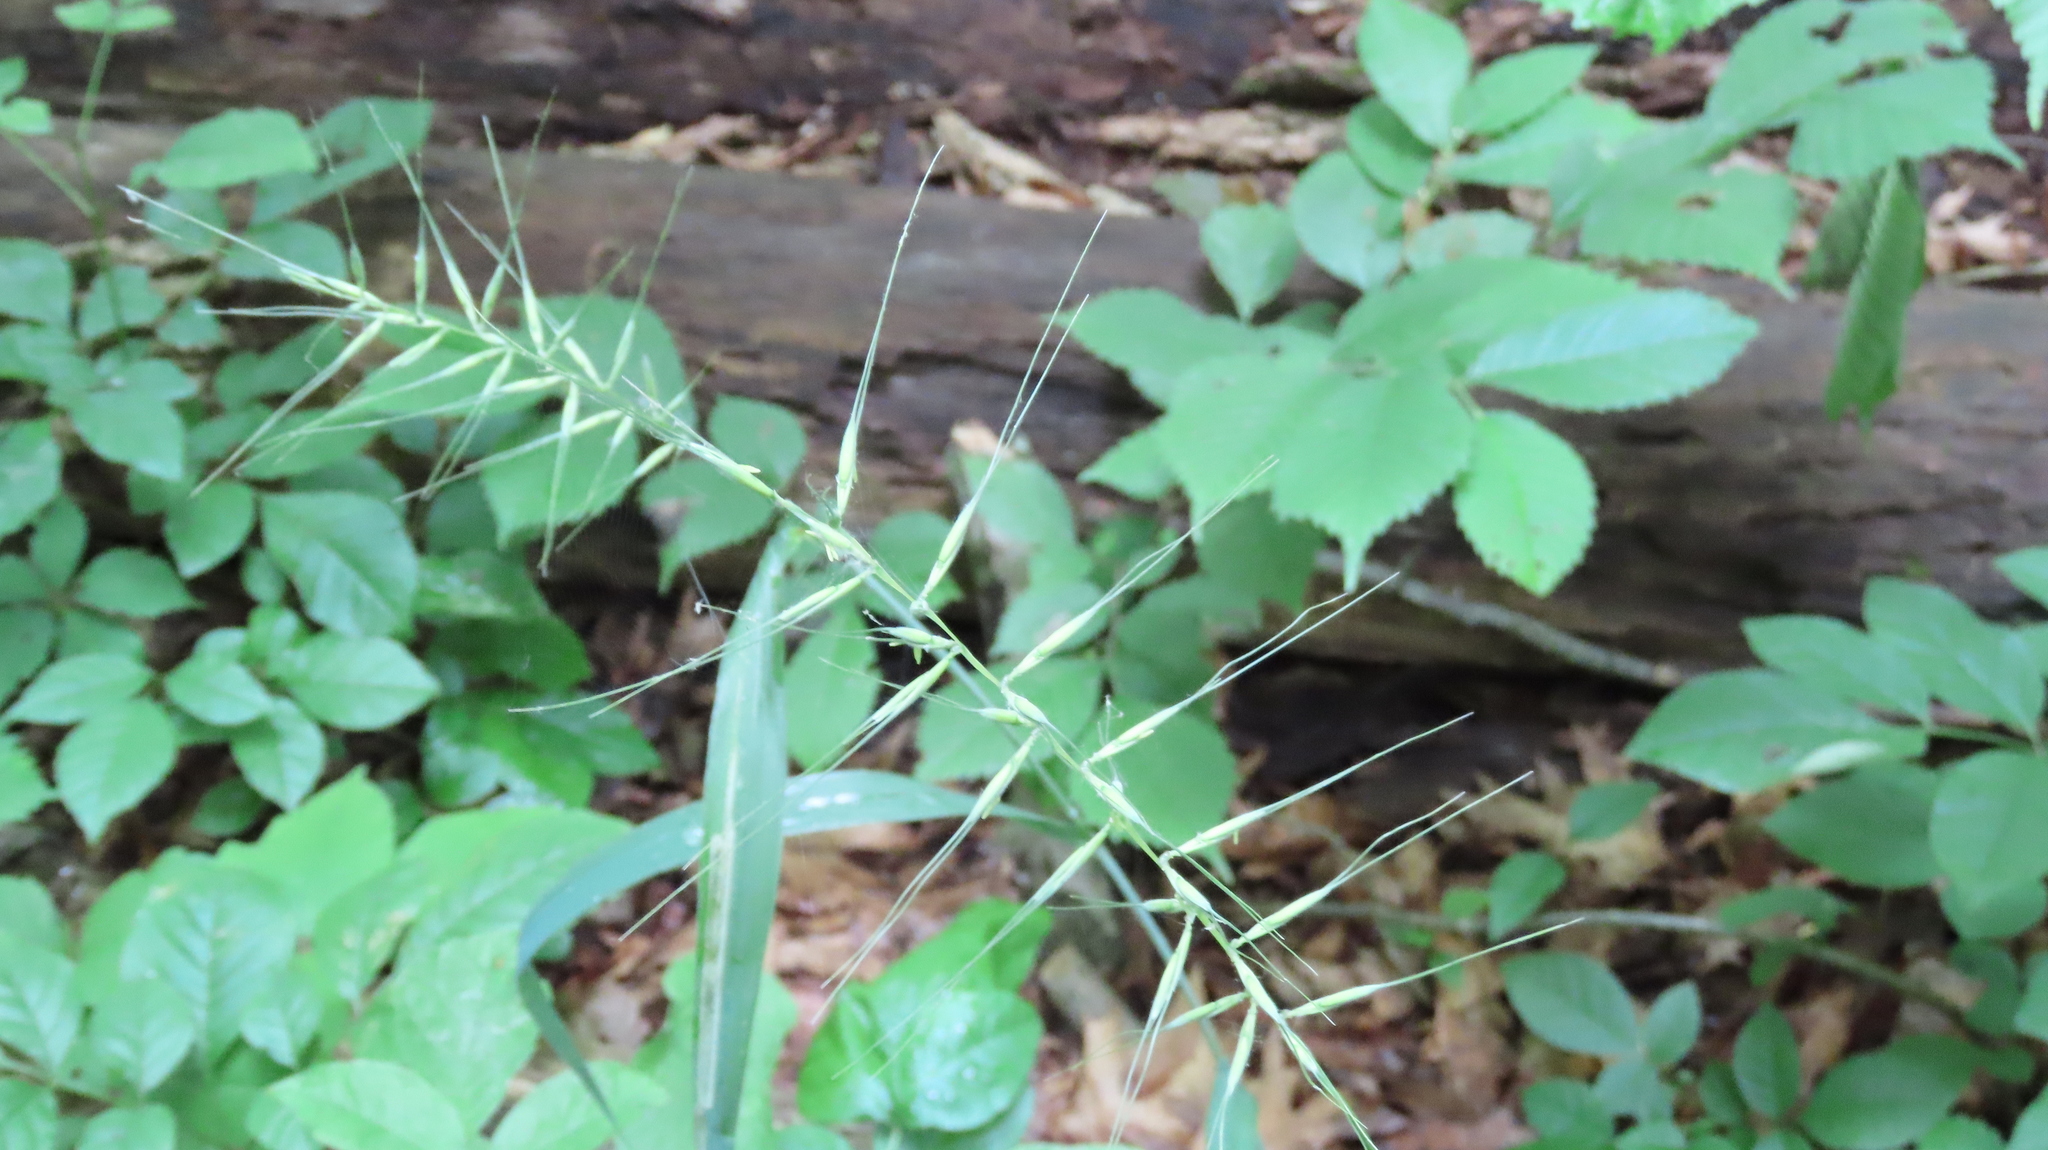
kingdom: Plantae
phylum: Tracheophyta
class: Liliopsida
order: Poales
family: Poaceae
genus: Elymus
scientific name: Elymus hystrix
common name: Bottlebrush grass
